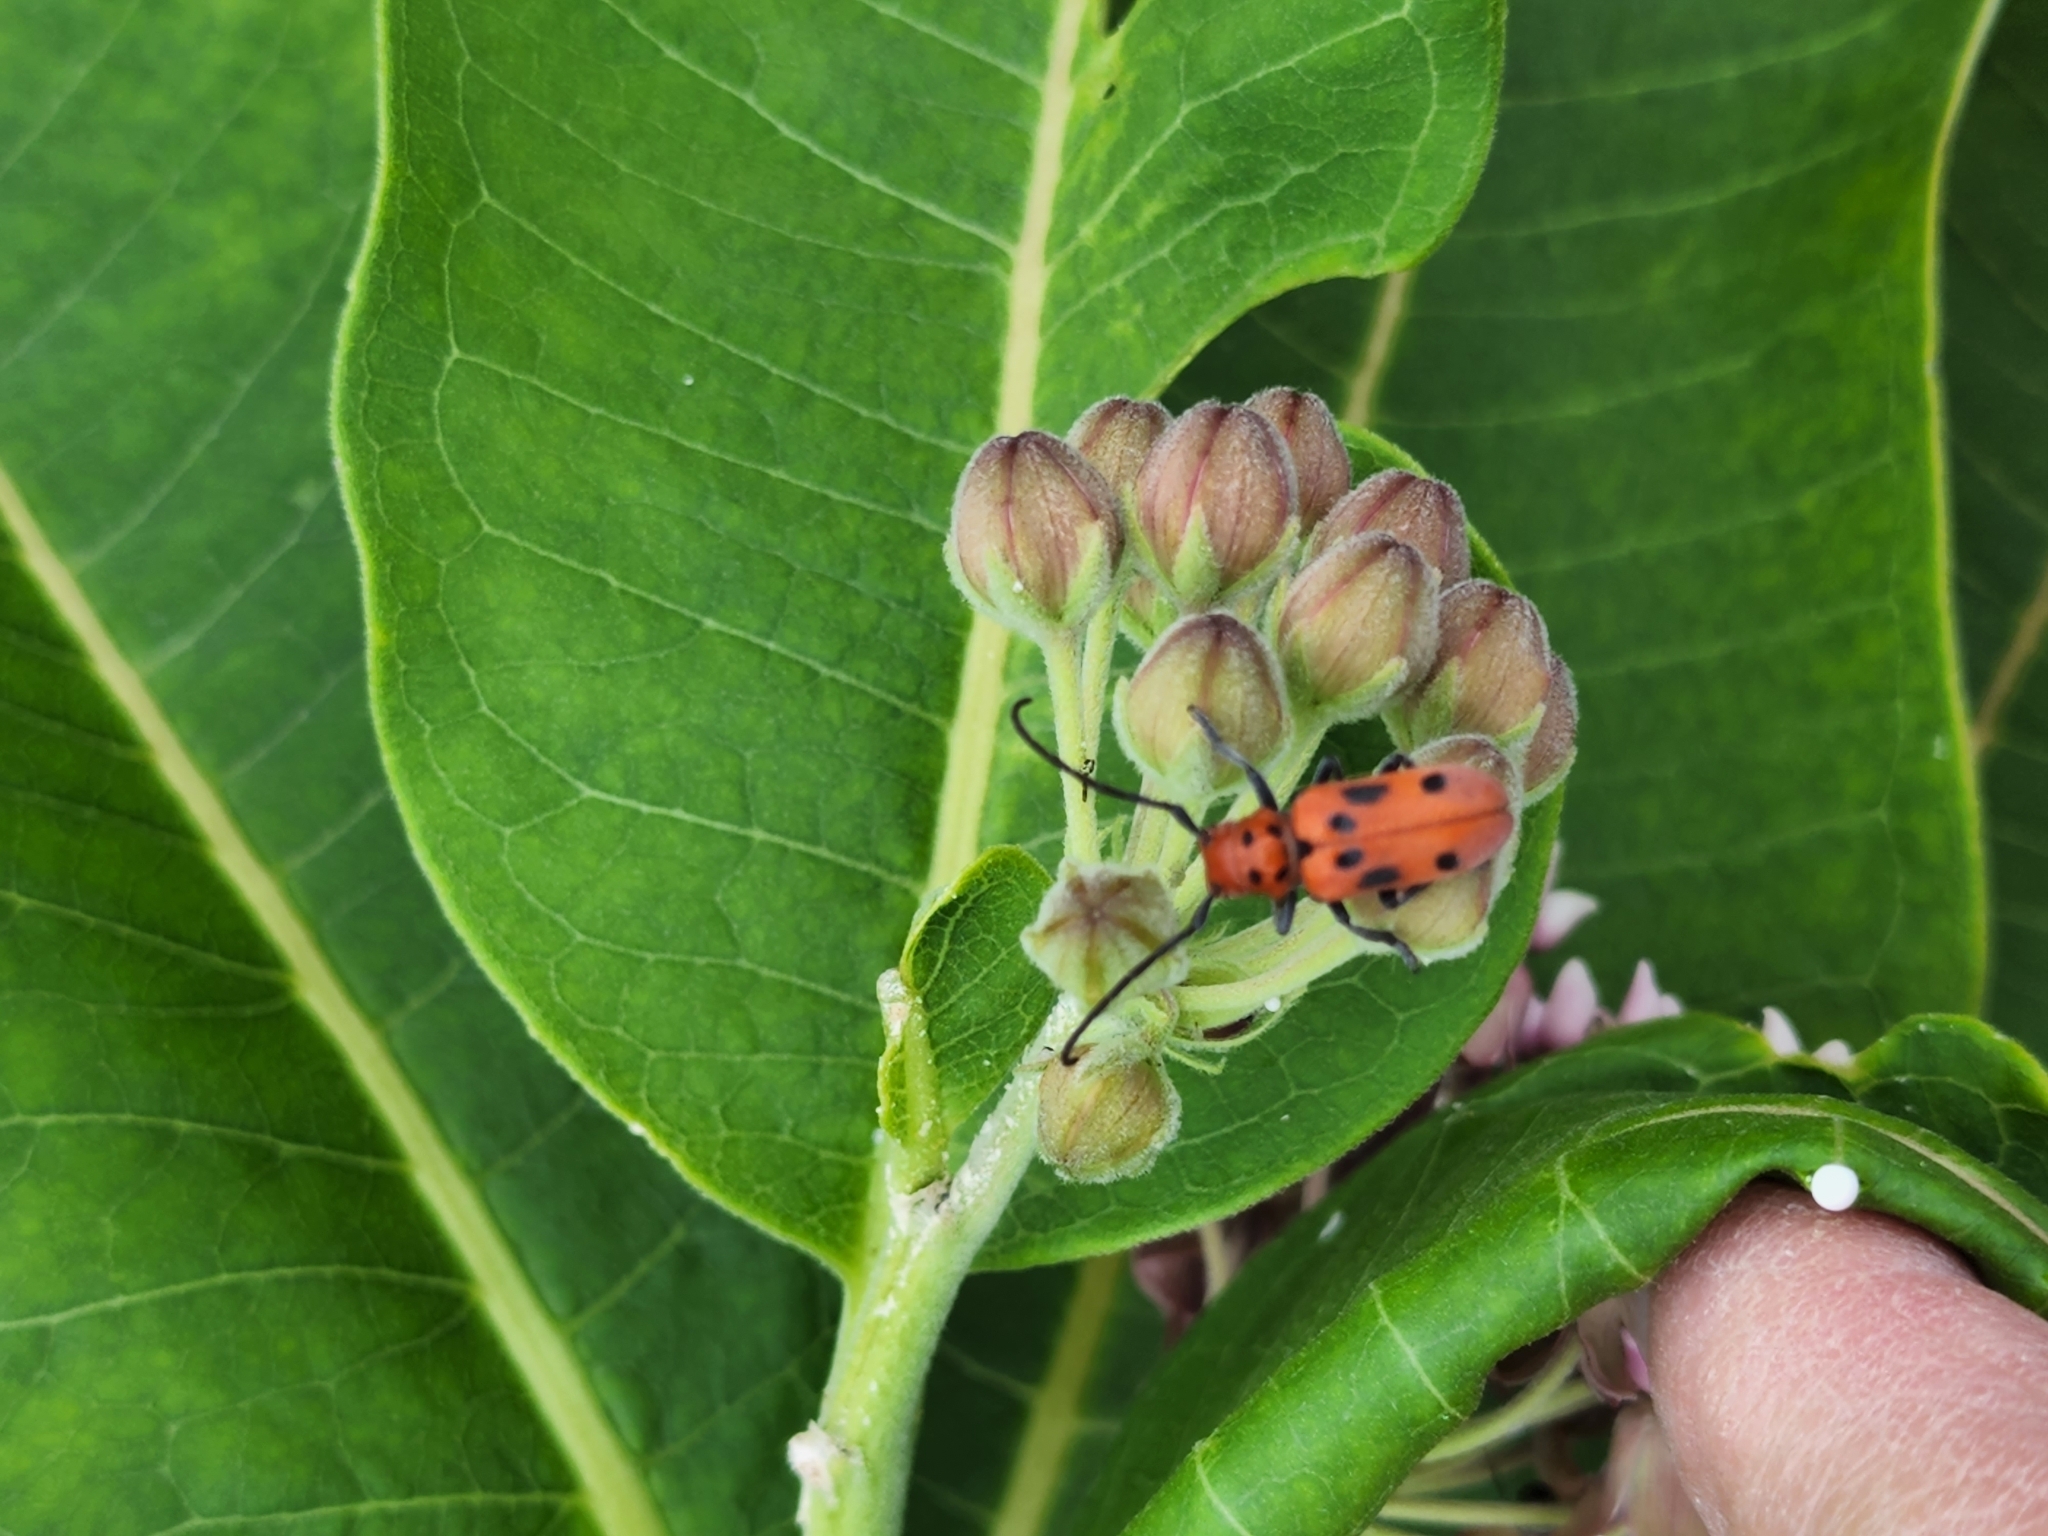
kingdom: Animalia
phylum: Arthropoda
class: Insecta
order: Coleoptera
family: Cerambycidae
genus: Tetraopes
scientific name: Tetraopes tetrophthalmus
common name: Red milkweed beetle
